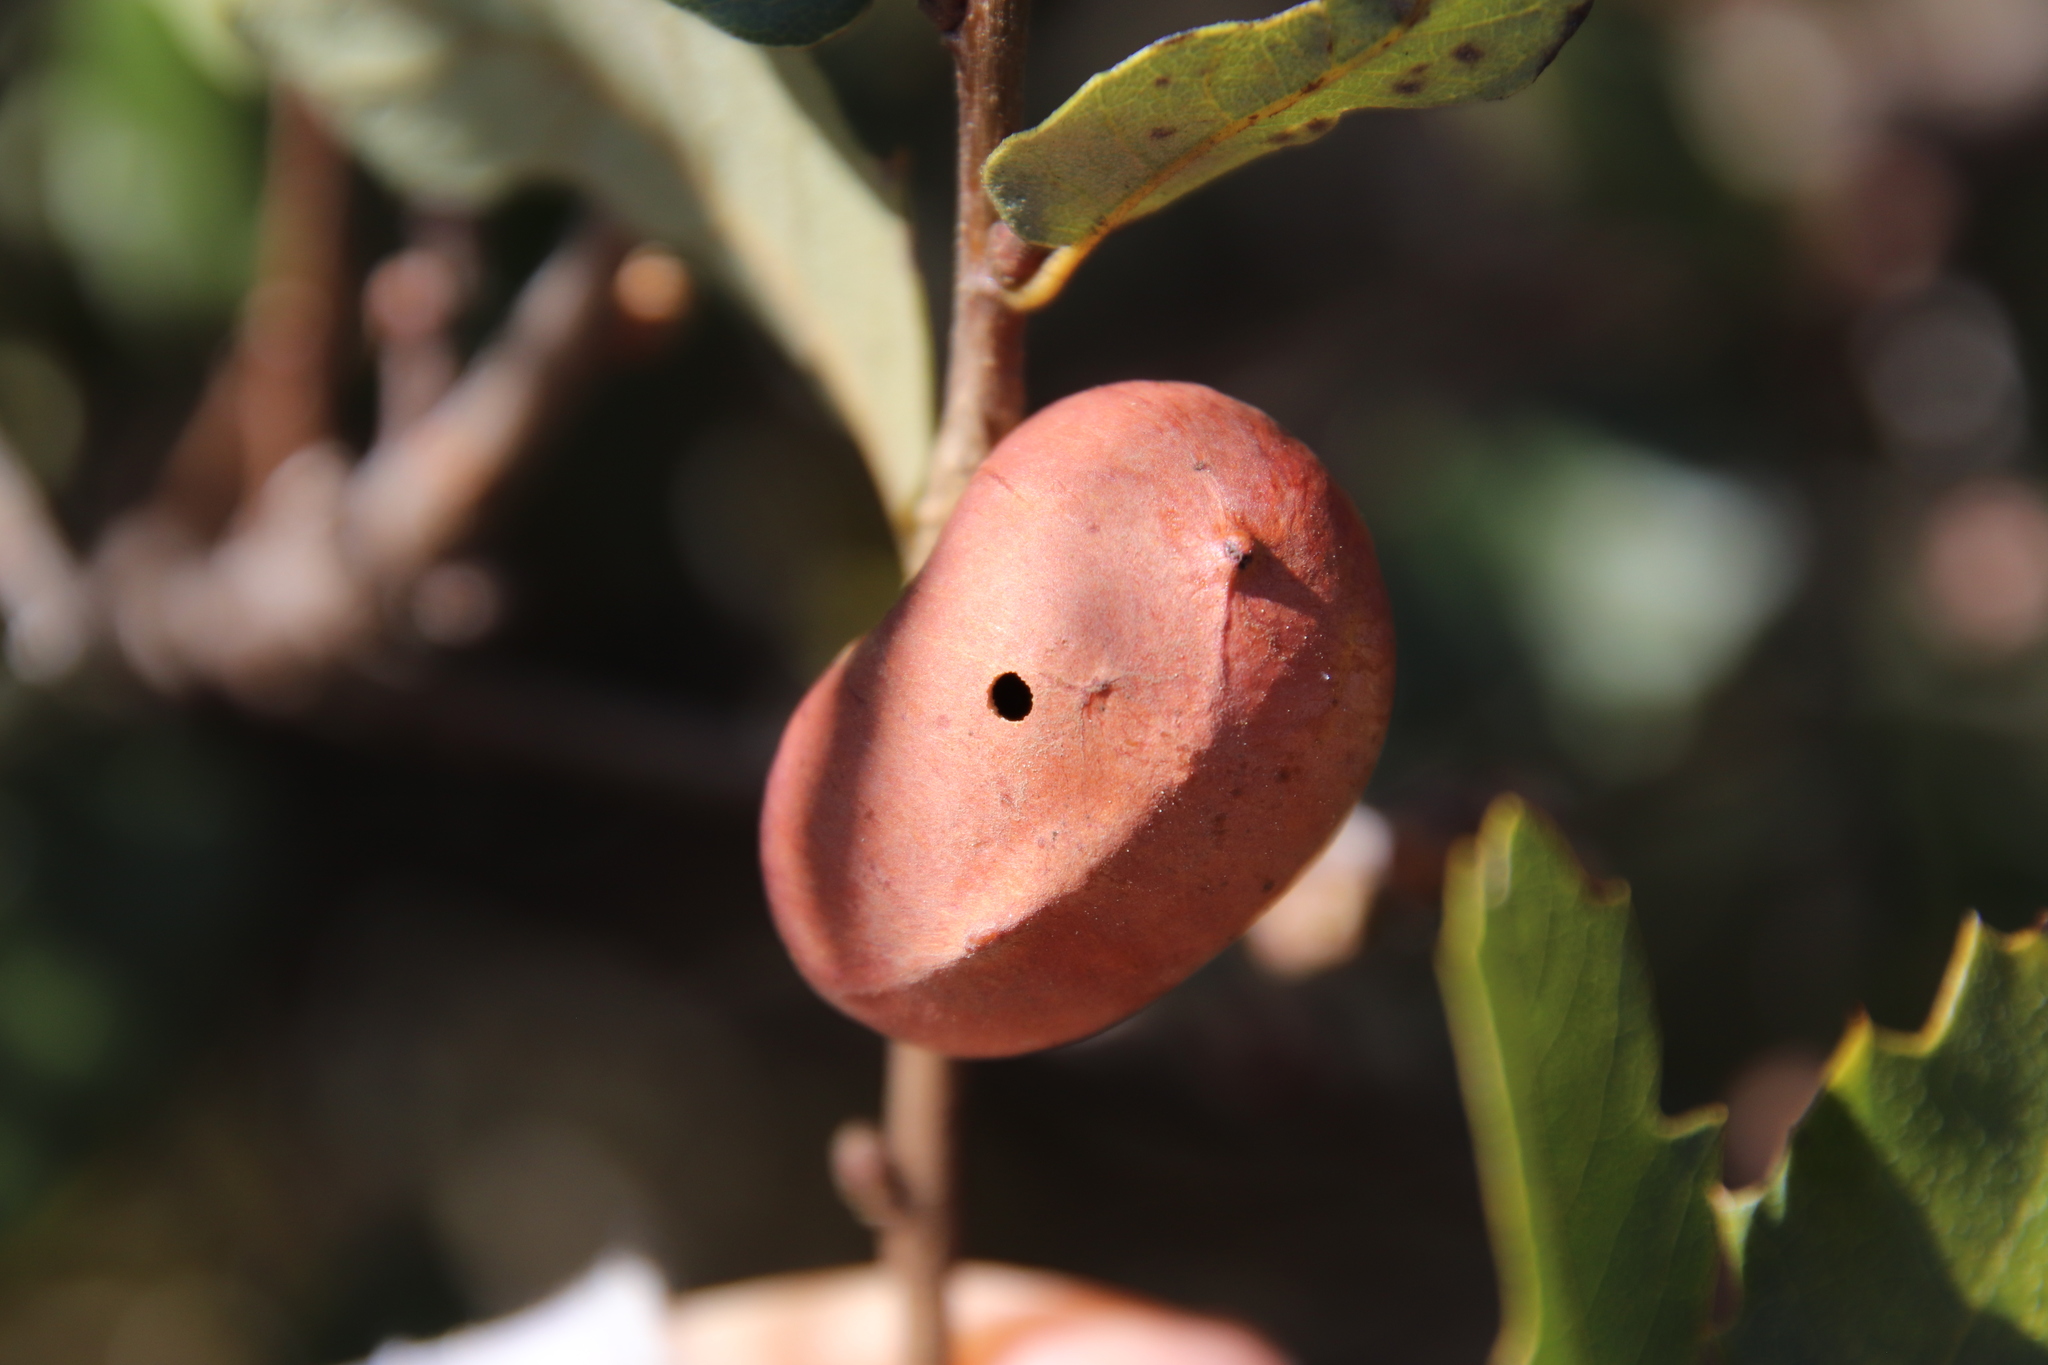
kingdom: Animalia
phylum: Arthropoda
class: Insecta
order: Hymenoptera
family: Cynipidae
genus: Andricus
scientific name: Andricus quercuscalifornicus
